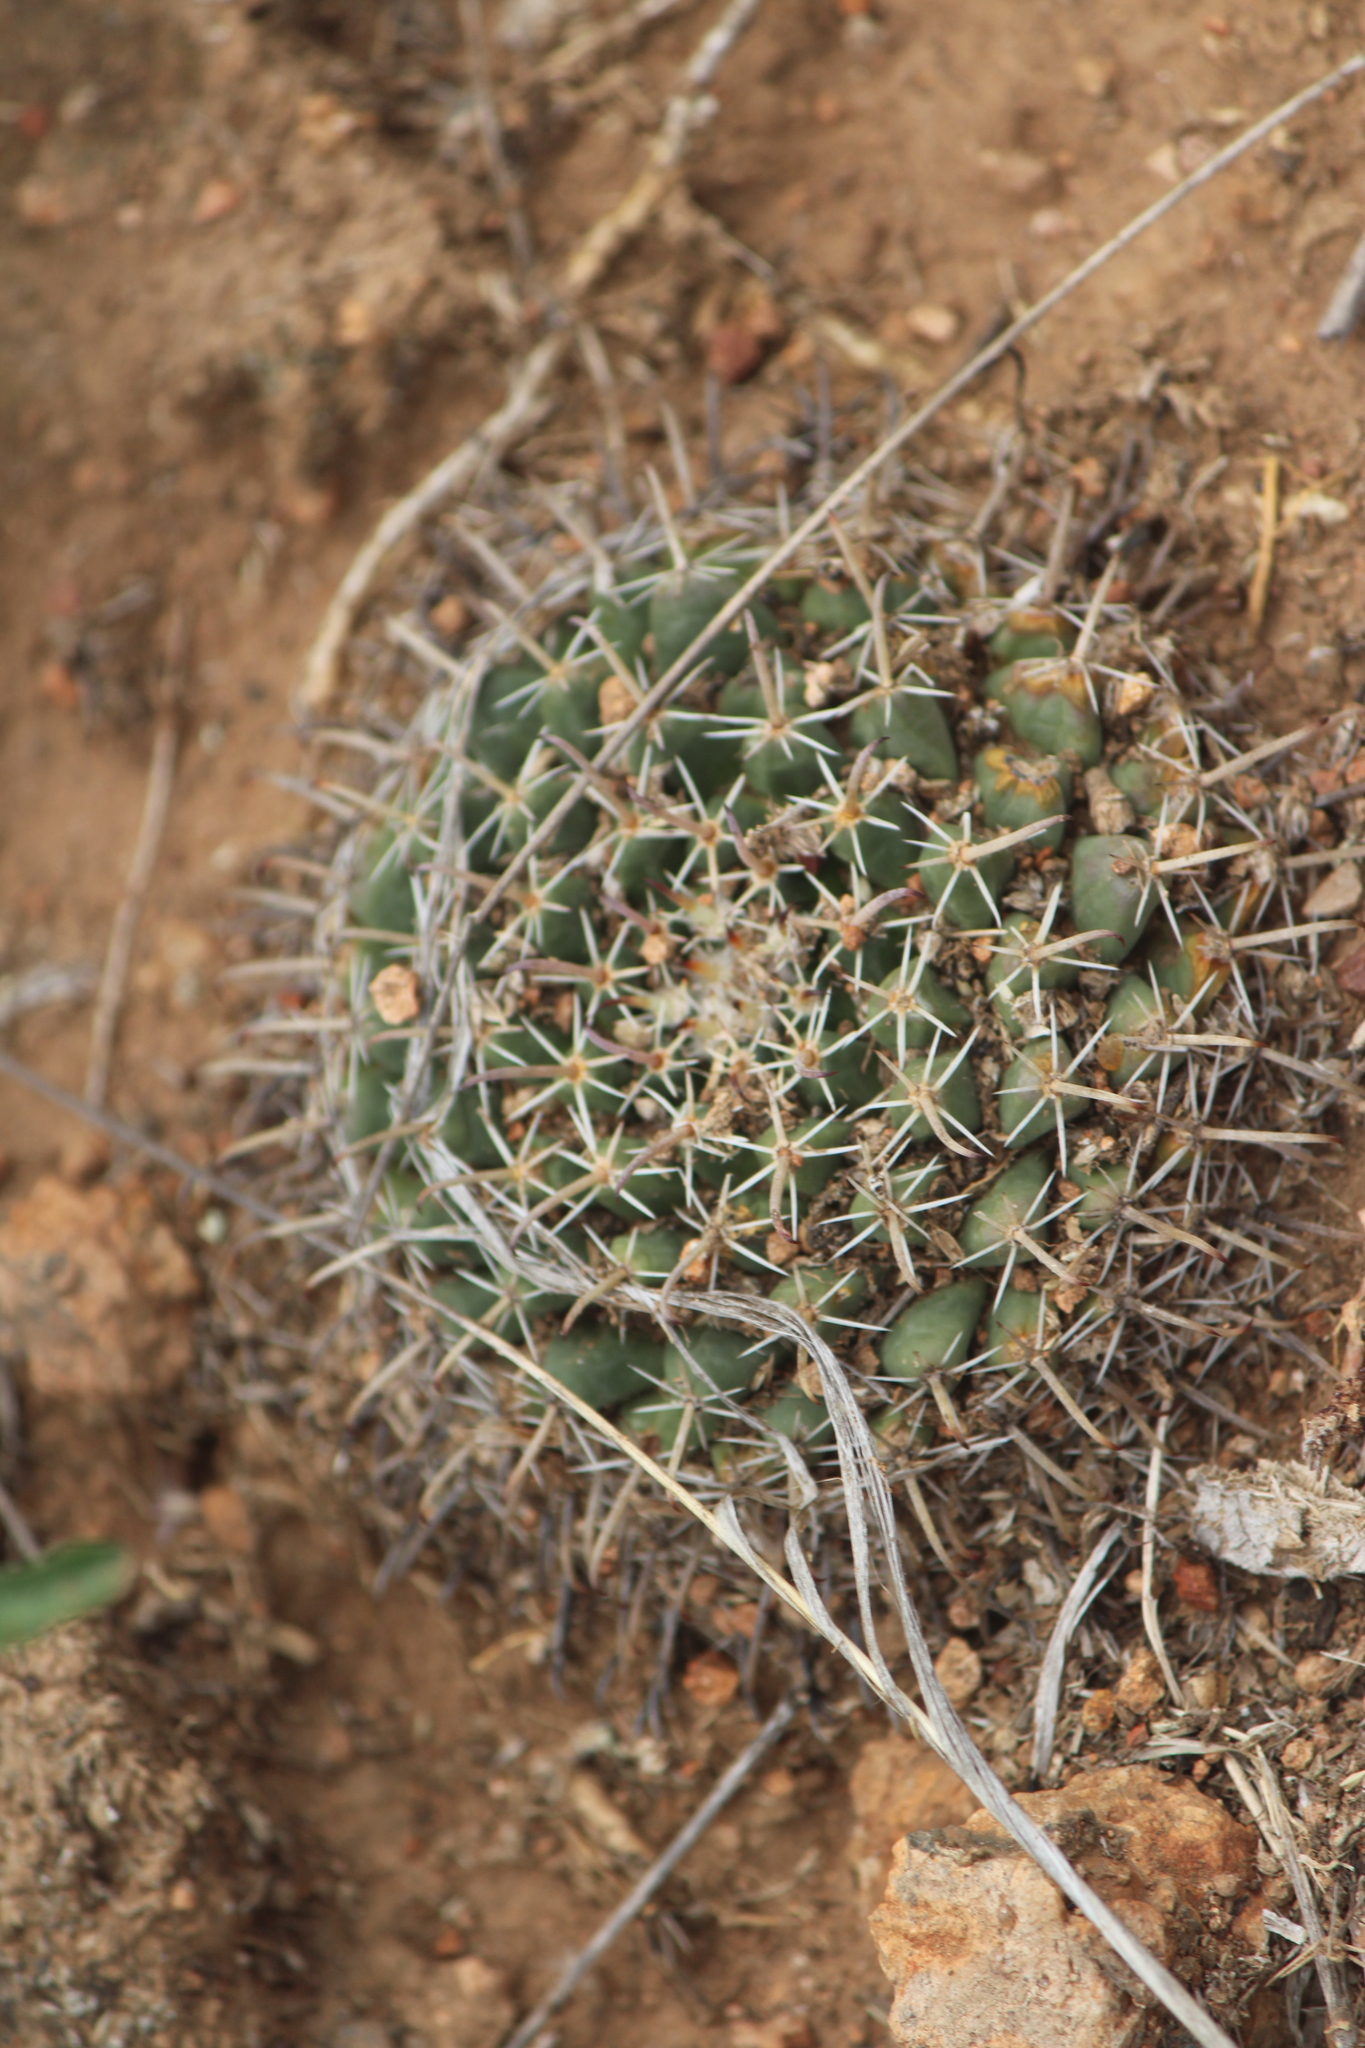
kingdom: Plantae
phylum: Tracheophyta
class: Magnoliopsida
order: Caryophyllales
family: Cactaceae
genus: Mammillaria
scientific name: Mammillaria uncinata
